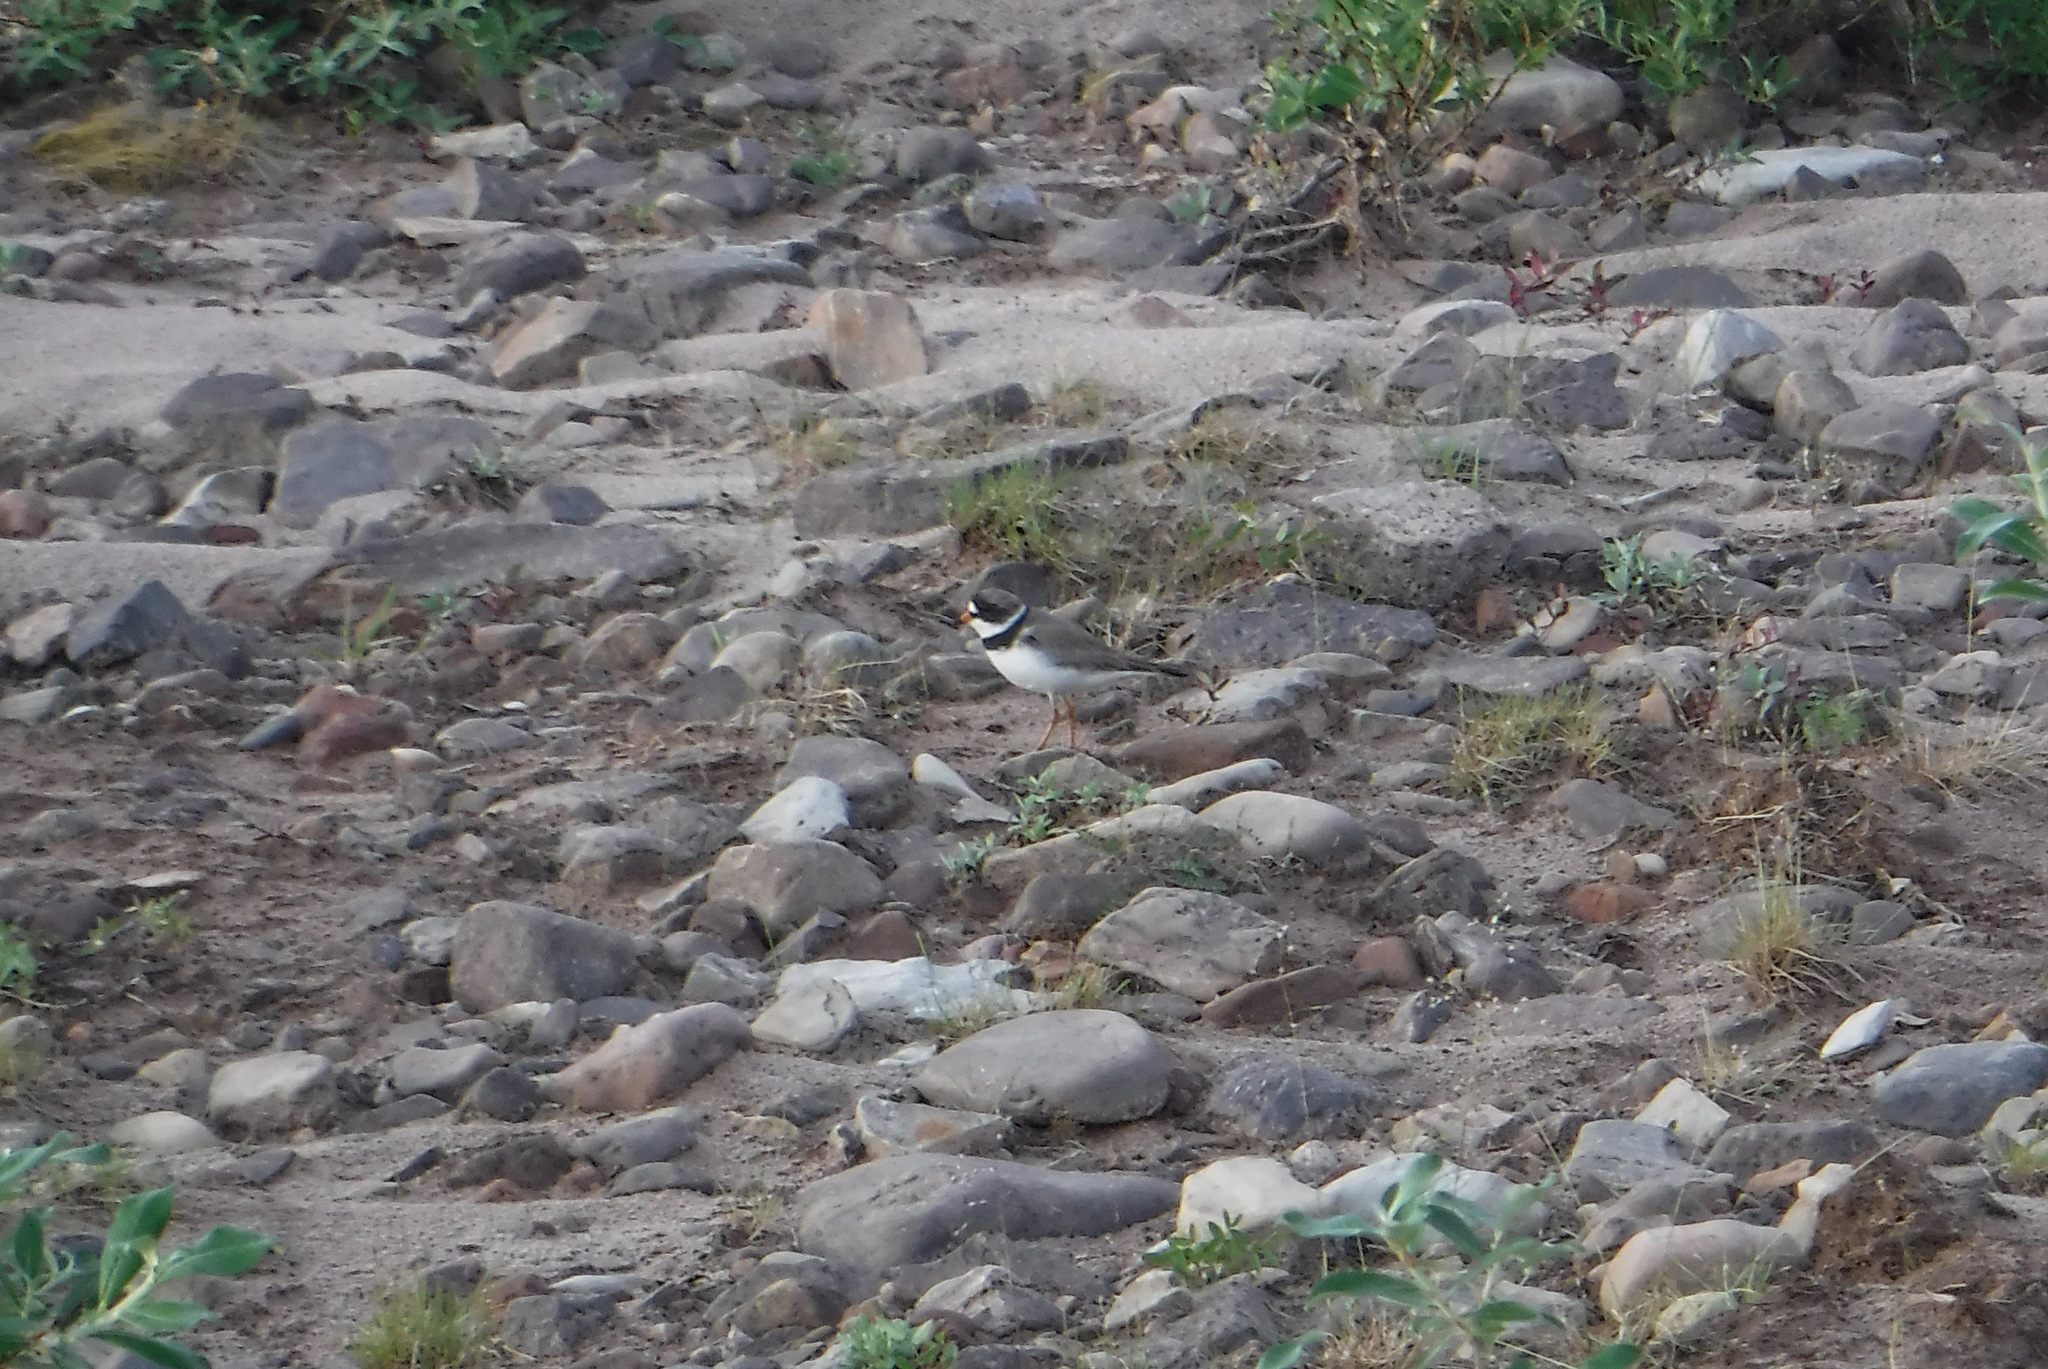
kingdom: Animalia
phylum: Chordata
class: Aves
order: Charadriiformes
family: Charadriidae
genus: Charadrius
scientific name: Charadrius semipalmatus
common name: Semipalmated plover
